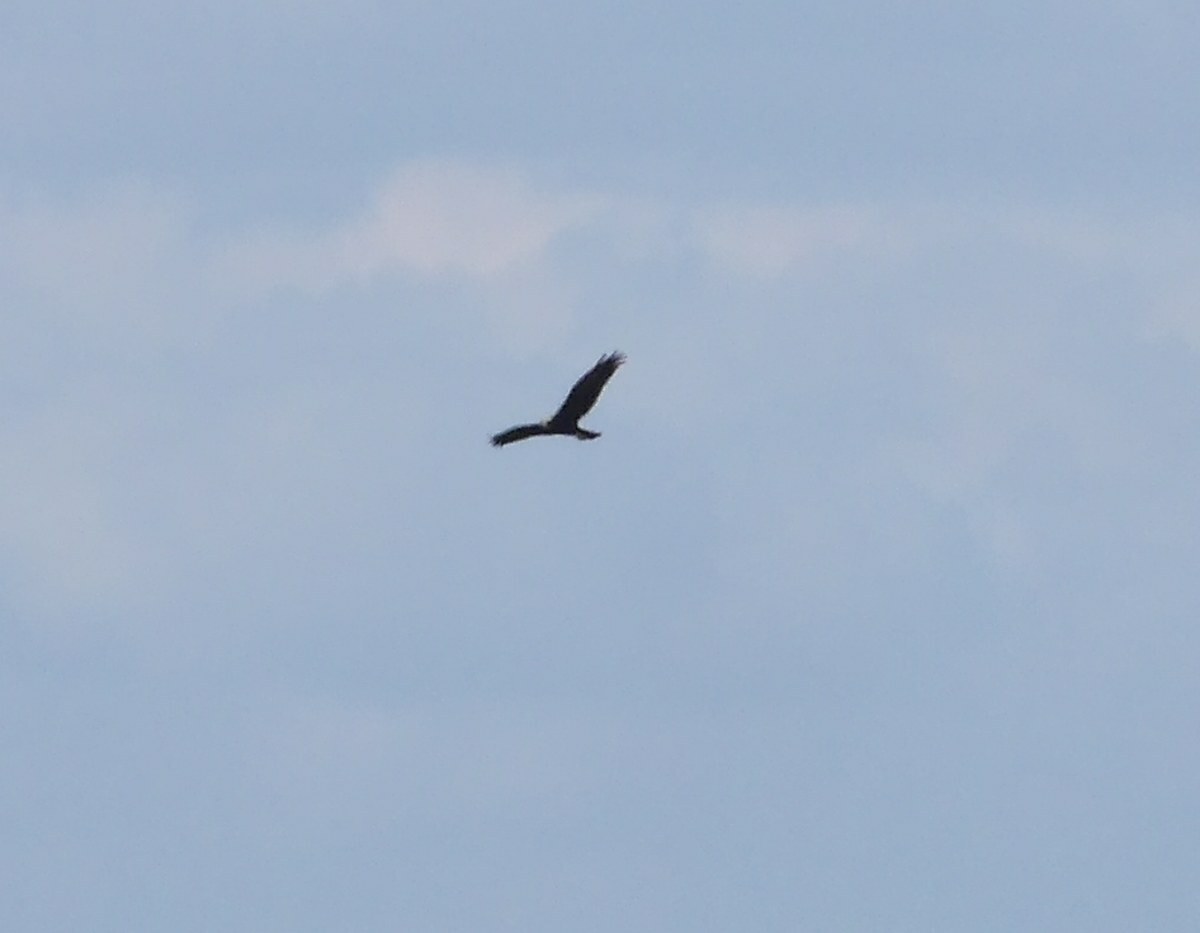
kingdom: Animalia
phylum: Chordata
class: Aves
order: Accipitriformes
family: Accipitridae
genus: Circus
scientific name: Circus aeruginosus
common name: Western marsh harrier
